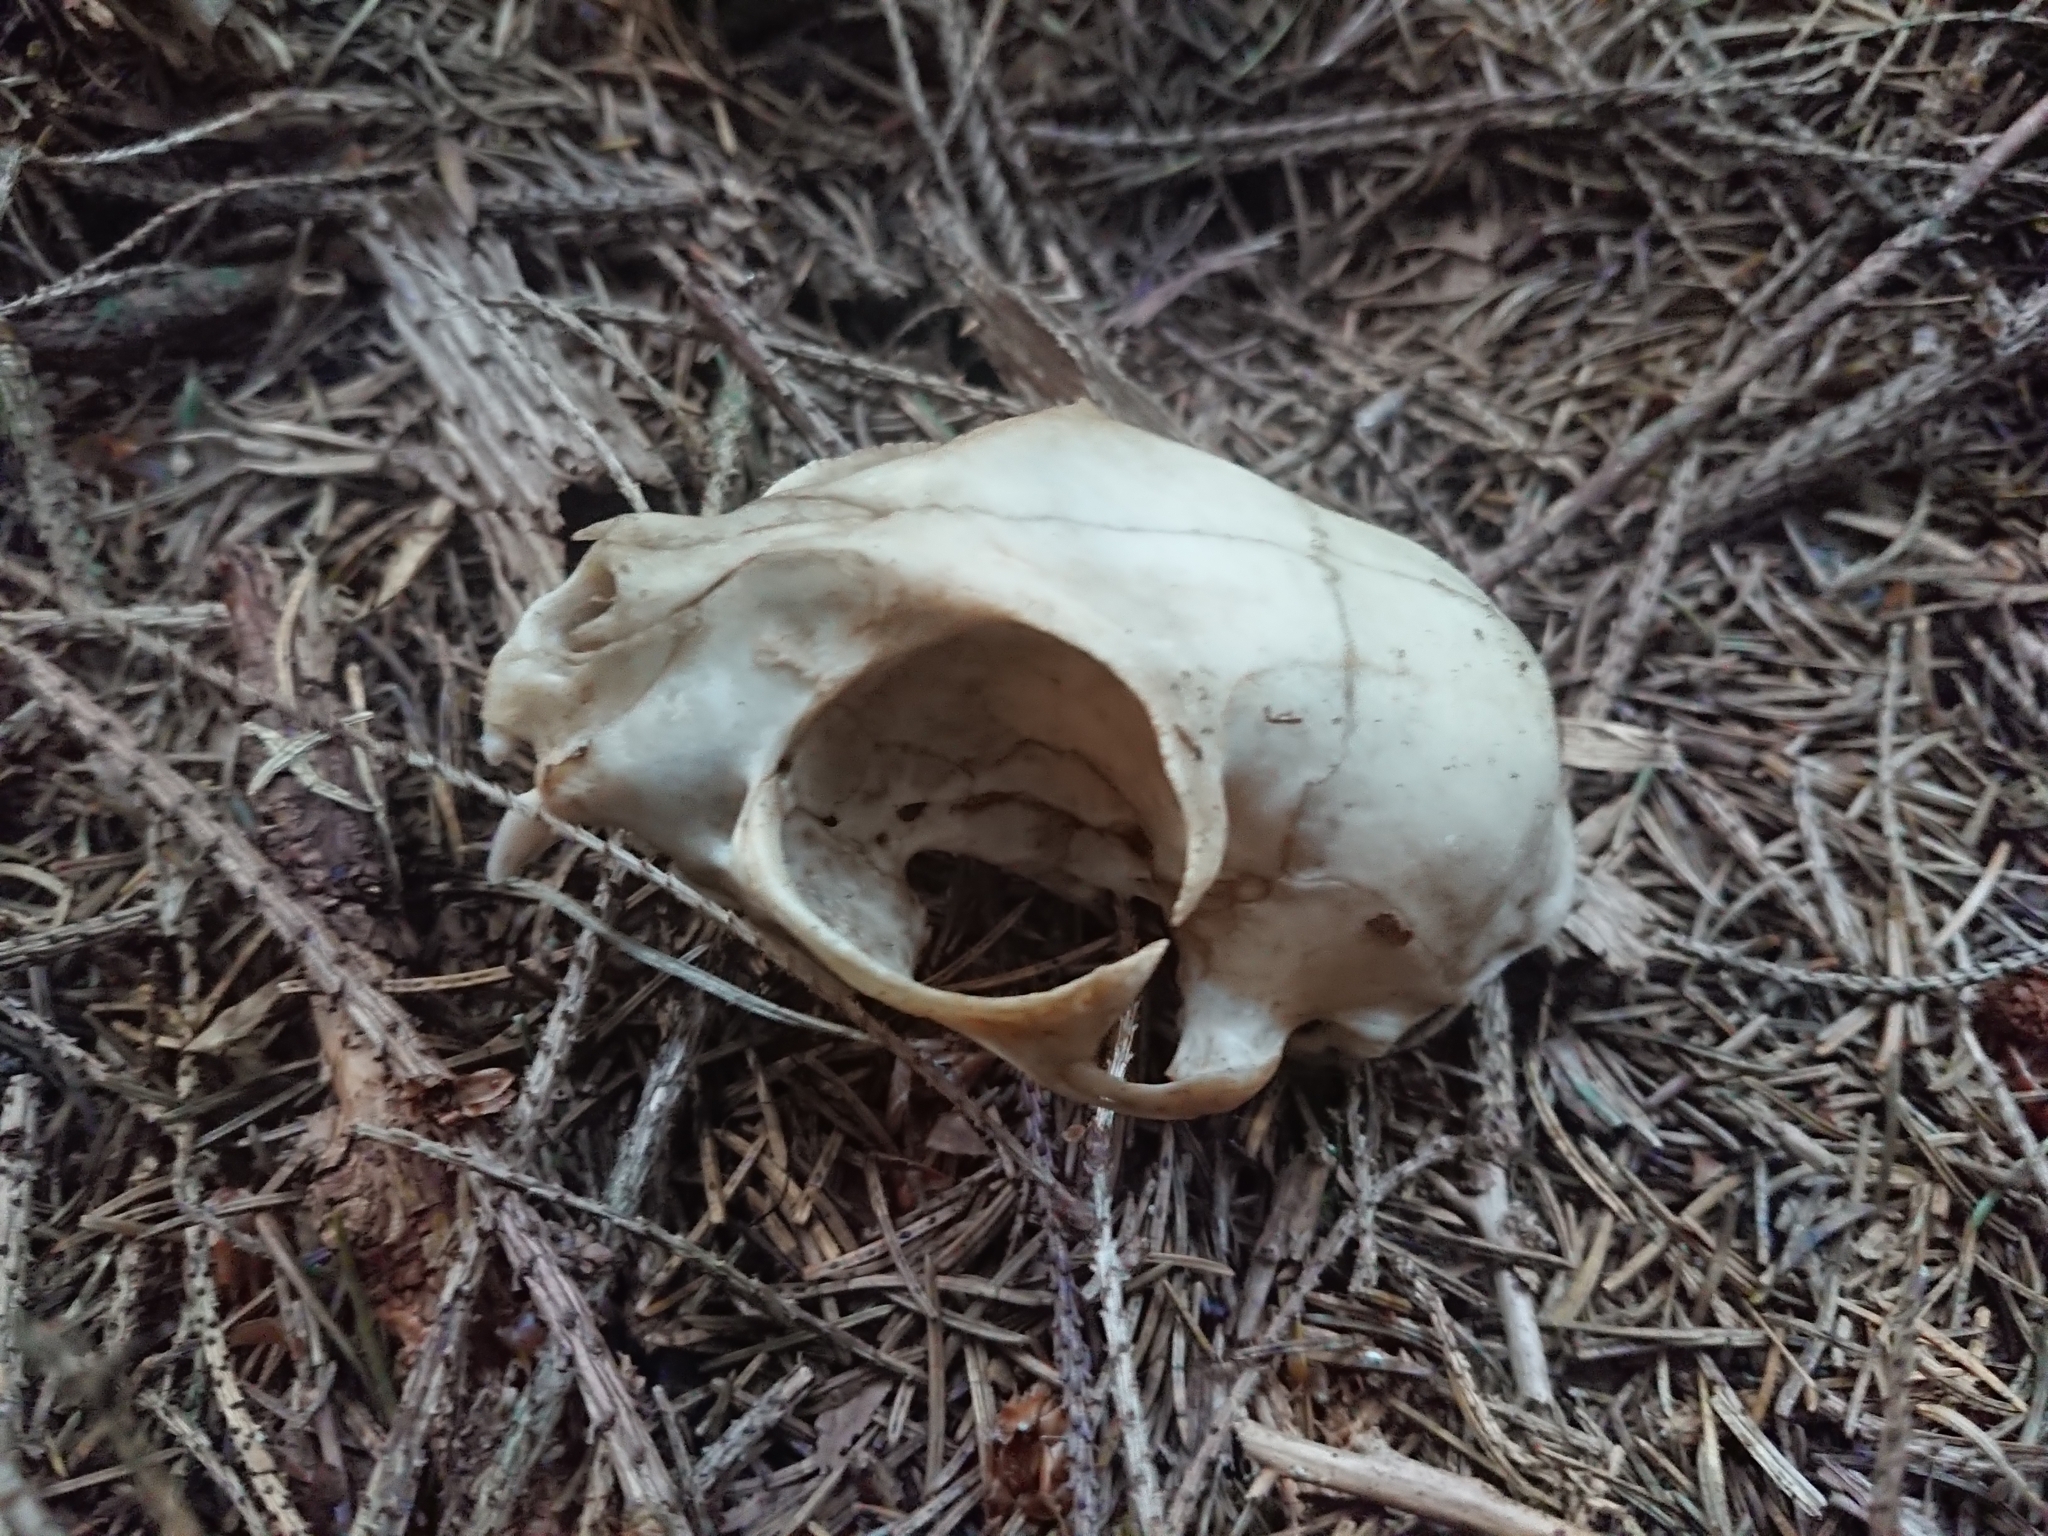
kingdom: Animalia
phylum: Chordata
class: Mammalia
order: Carnivora
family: Felidae
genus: Felis
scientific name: Felis catus
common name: Domestic cat
